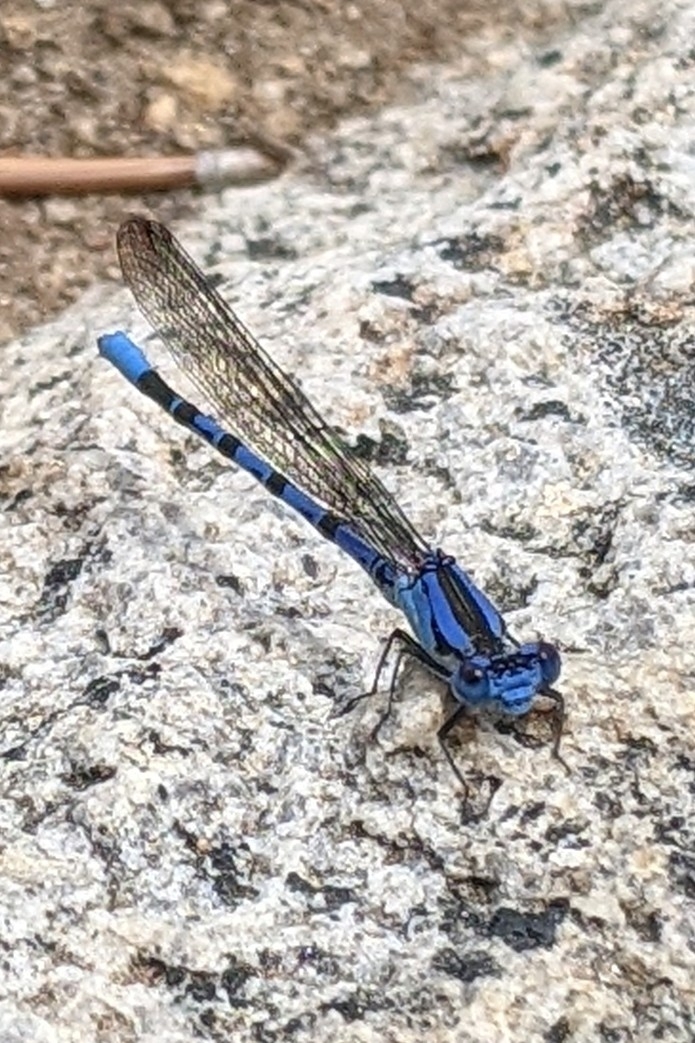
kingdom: Animalia
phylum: Arthropoda
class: Insecta
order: Odonata
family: Coenagrionidae
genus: Argia
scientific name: Argia vivida
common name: Vivid dancer
